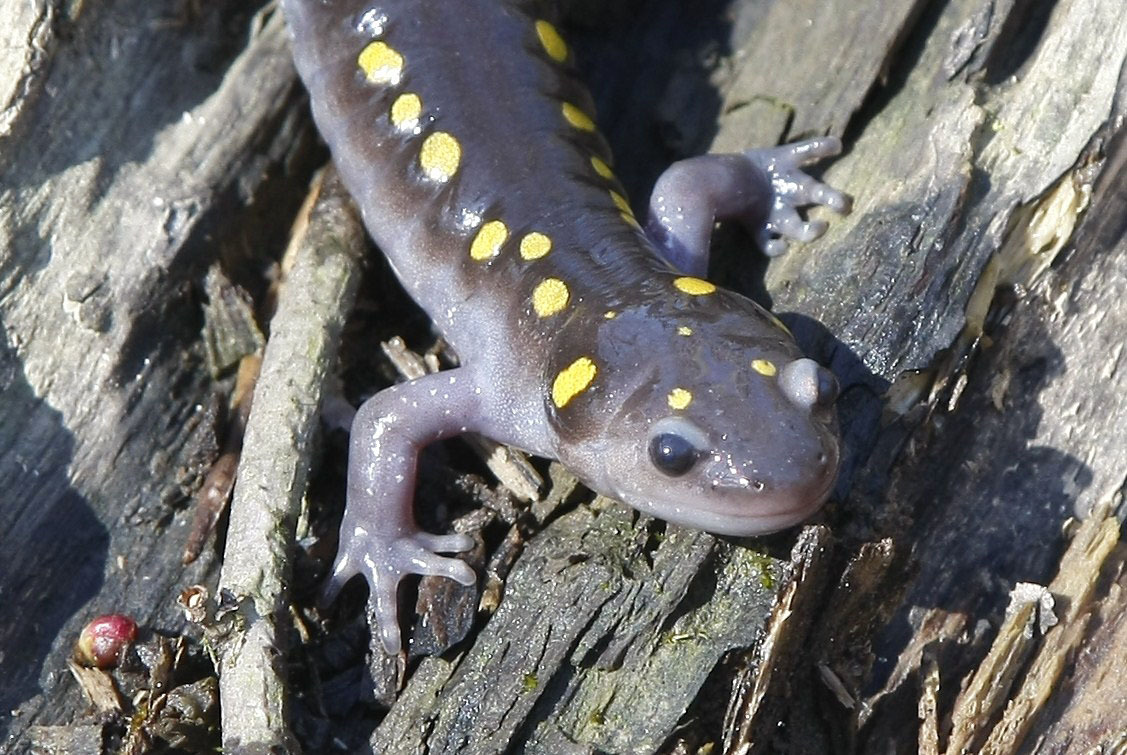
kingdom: Animalia
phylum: Chordata
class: Amphibia
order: Caudata
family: Ambystomatidae
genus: Ambystoma
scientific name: Ambystoma maculatum
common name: Spotted salamander
